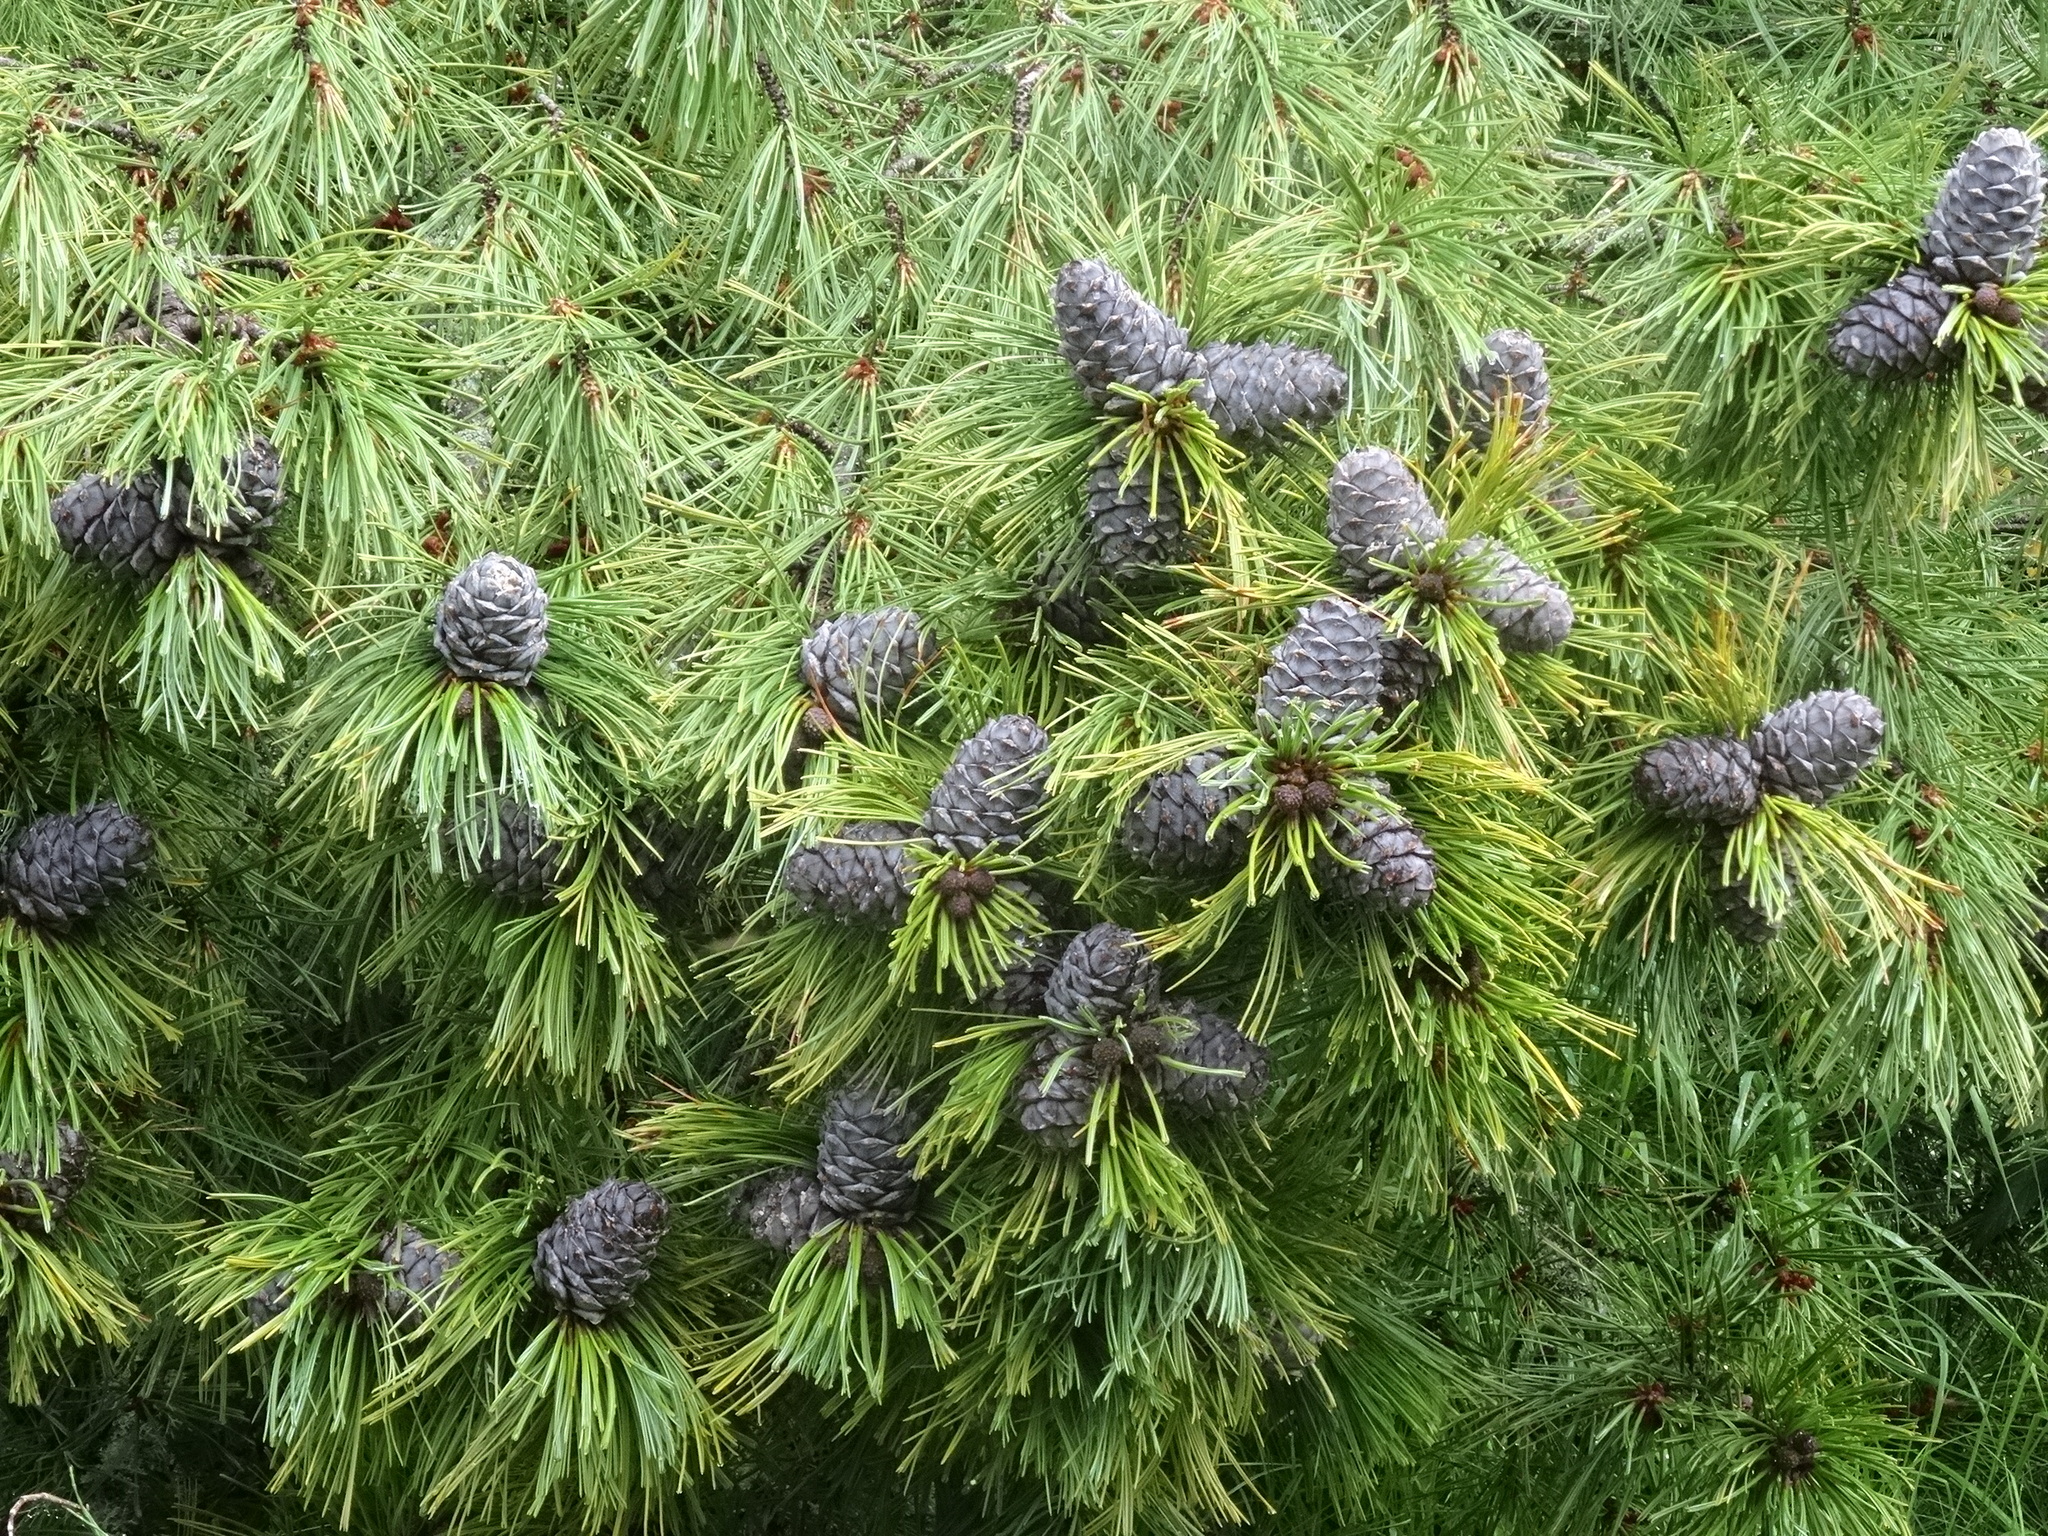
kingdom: Plantae
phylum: Tracheophyta
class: Pinopsida
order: Pinales
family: Pinaceae
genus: Pinus
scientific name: Pinus sibirica
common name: Siberian pine
